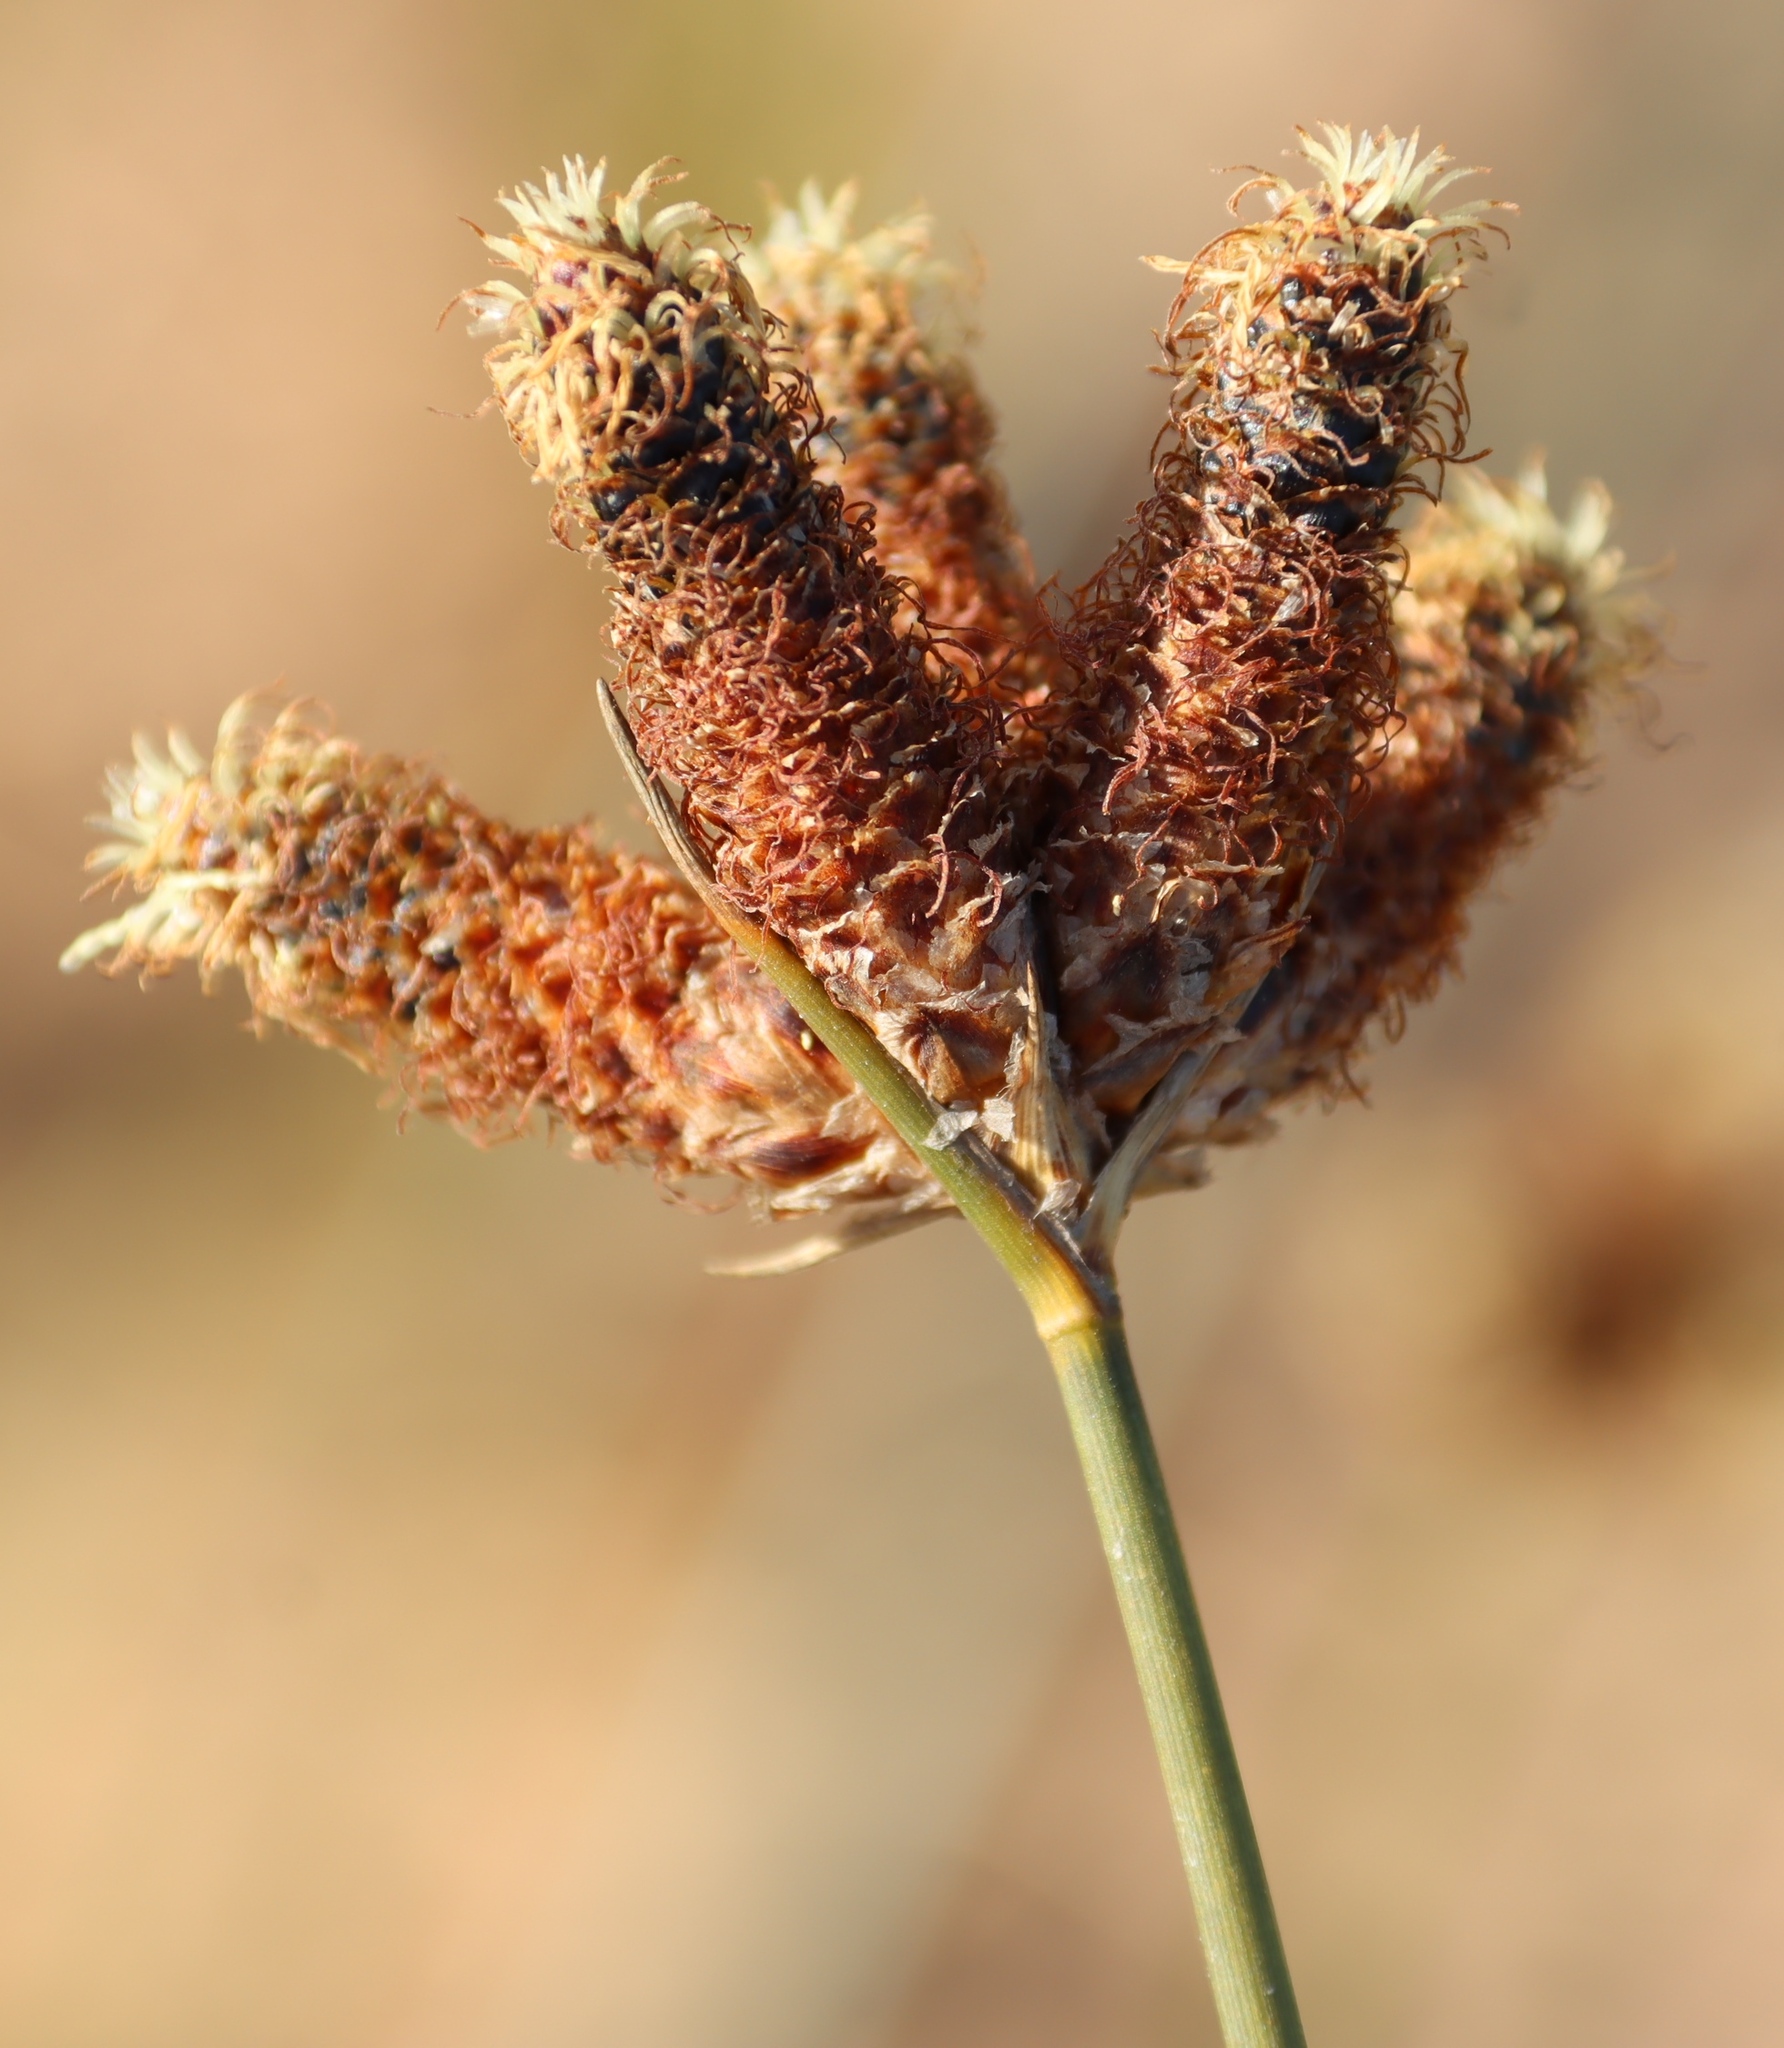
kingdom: Plantae
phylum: Tracheophyta
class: Liliopsida
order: Poales
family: Cyperaceae
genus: Hellmuthia
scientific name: Hellmuthia membranacea
